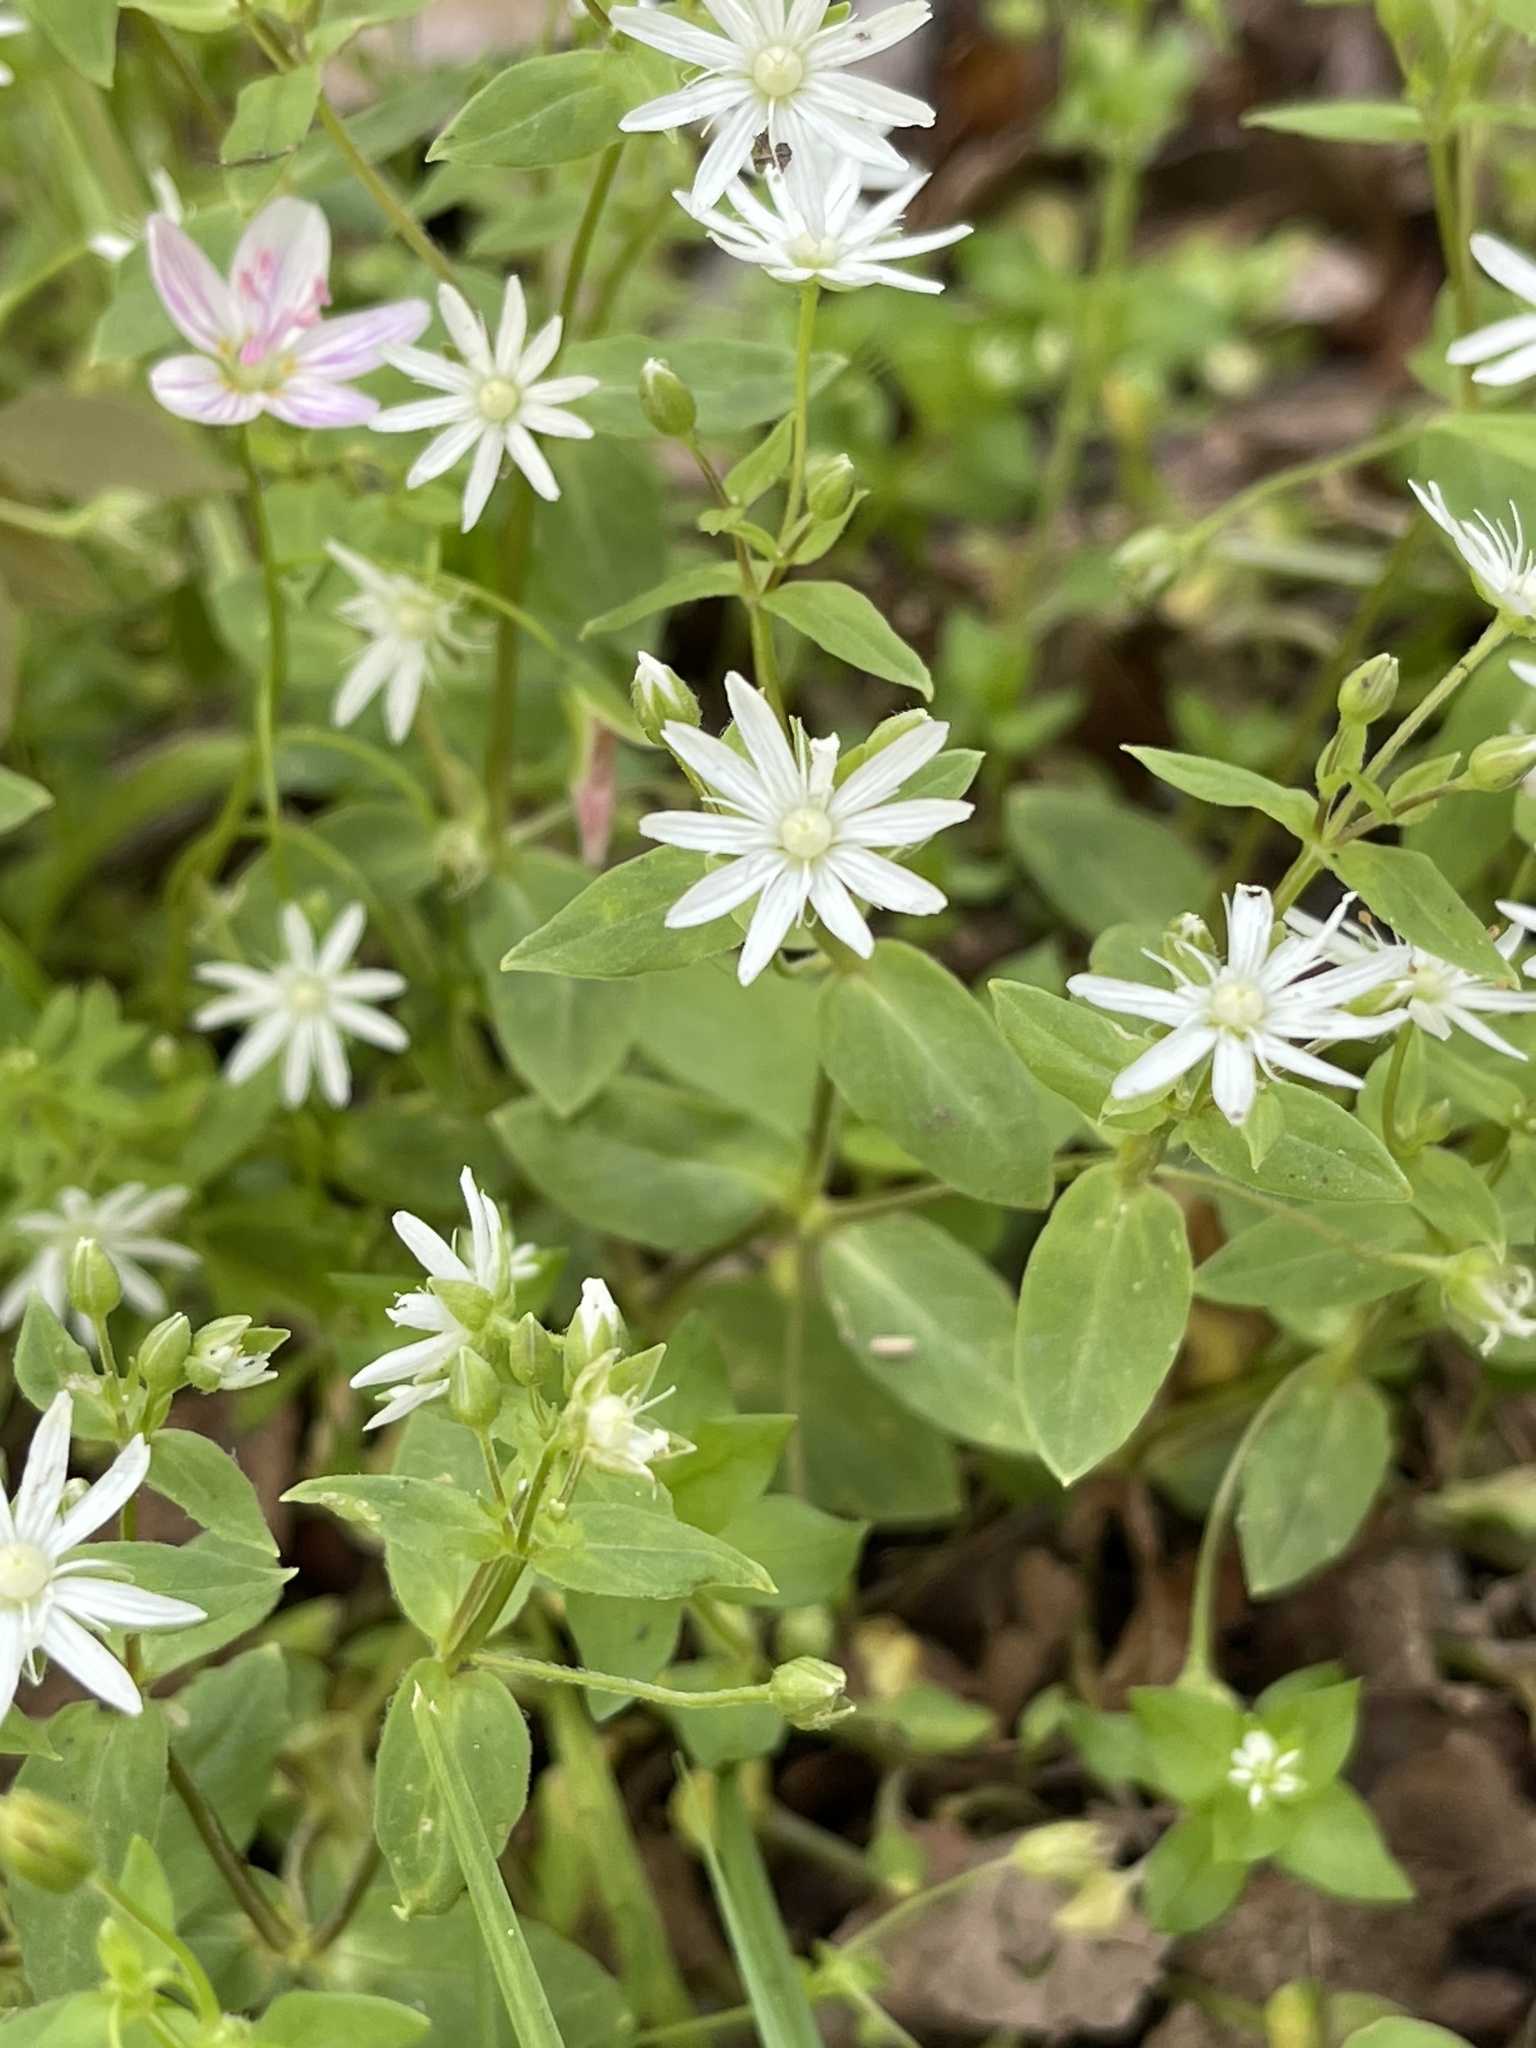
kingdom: Plantae
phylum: Tracheophyta
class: Magnoliopsida
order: Caryophyllales
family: Caryophyllaceae
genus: Stellaria
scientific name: Stellaria pubera
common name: Star chickweed
